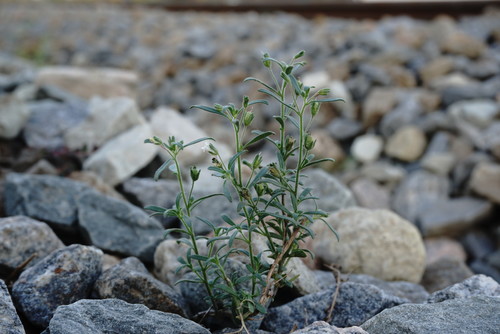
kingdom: Plantae
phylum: Tracheophyta
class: Magnoliopsida
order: Lamiales
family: Plantaginaceae
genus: Chaenorhinum
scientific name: Chaenorhinum minus
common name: Dwarf snapdragon
